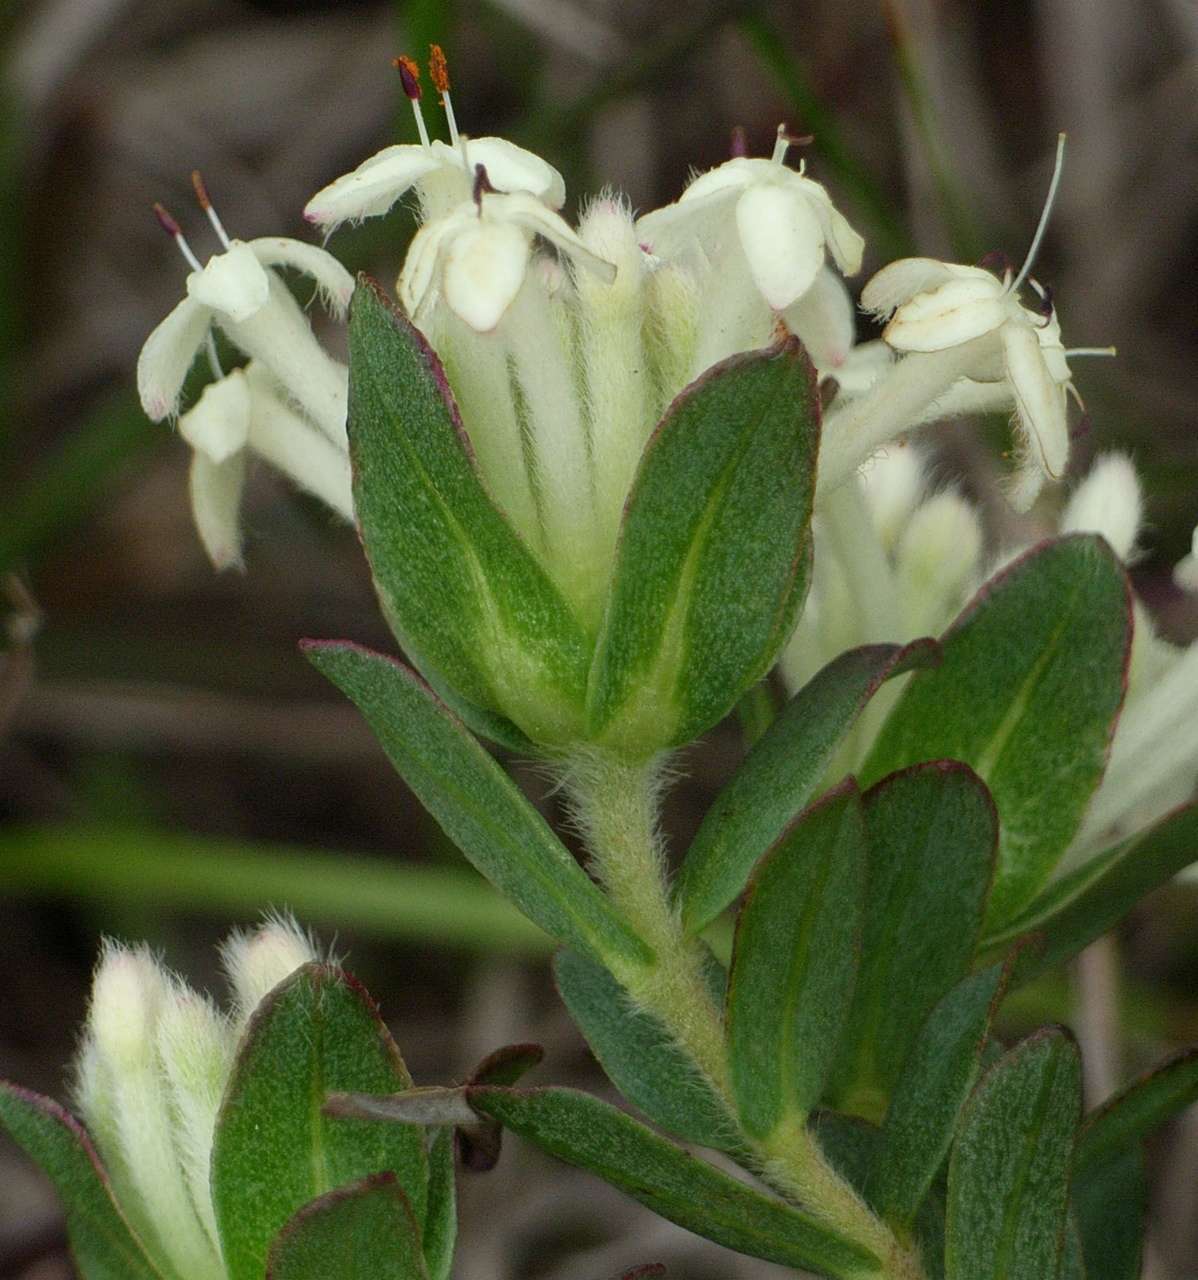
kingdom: Plantae
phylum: Tracheophyta
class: Magnoliopsida
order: Malvales
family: Thymelaeaceae
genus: Pimelea
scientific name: Pimelea humilis
